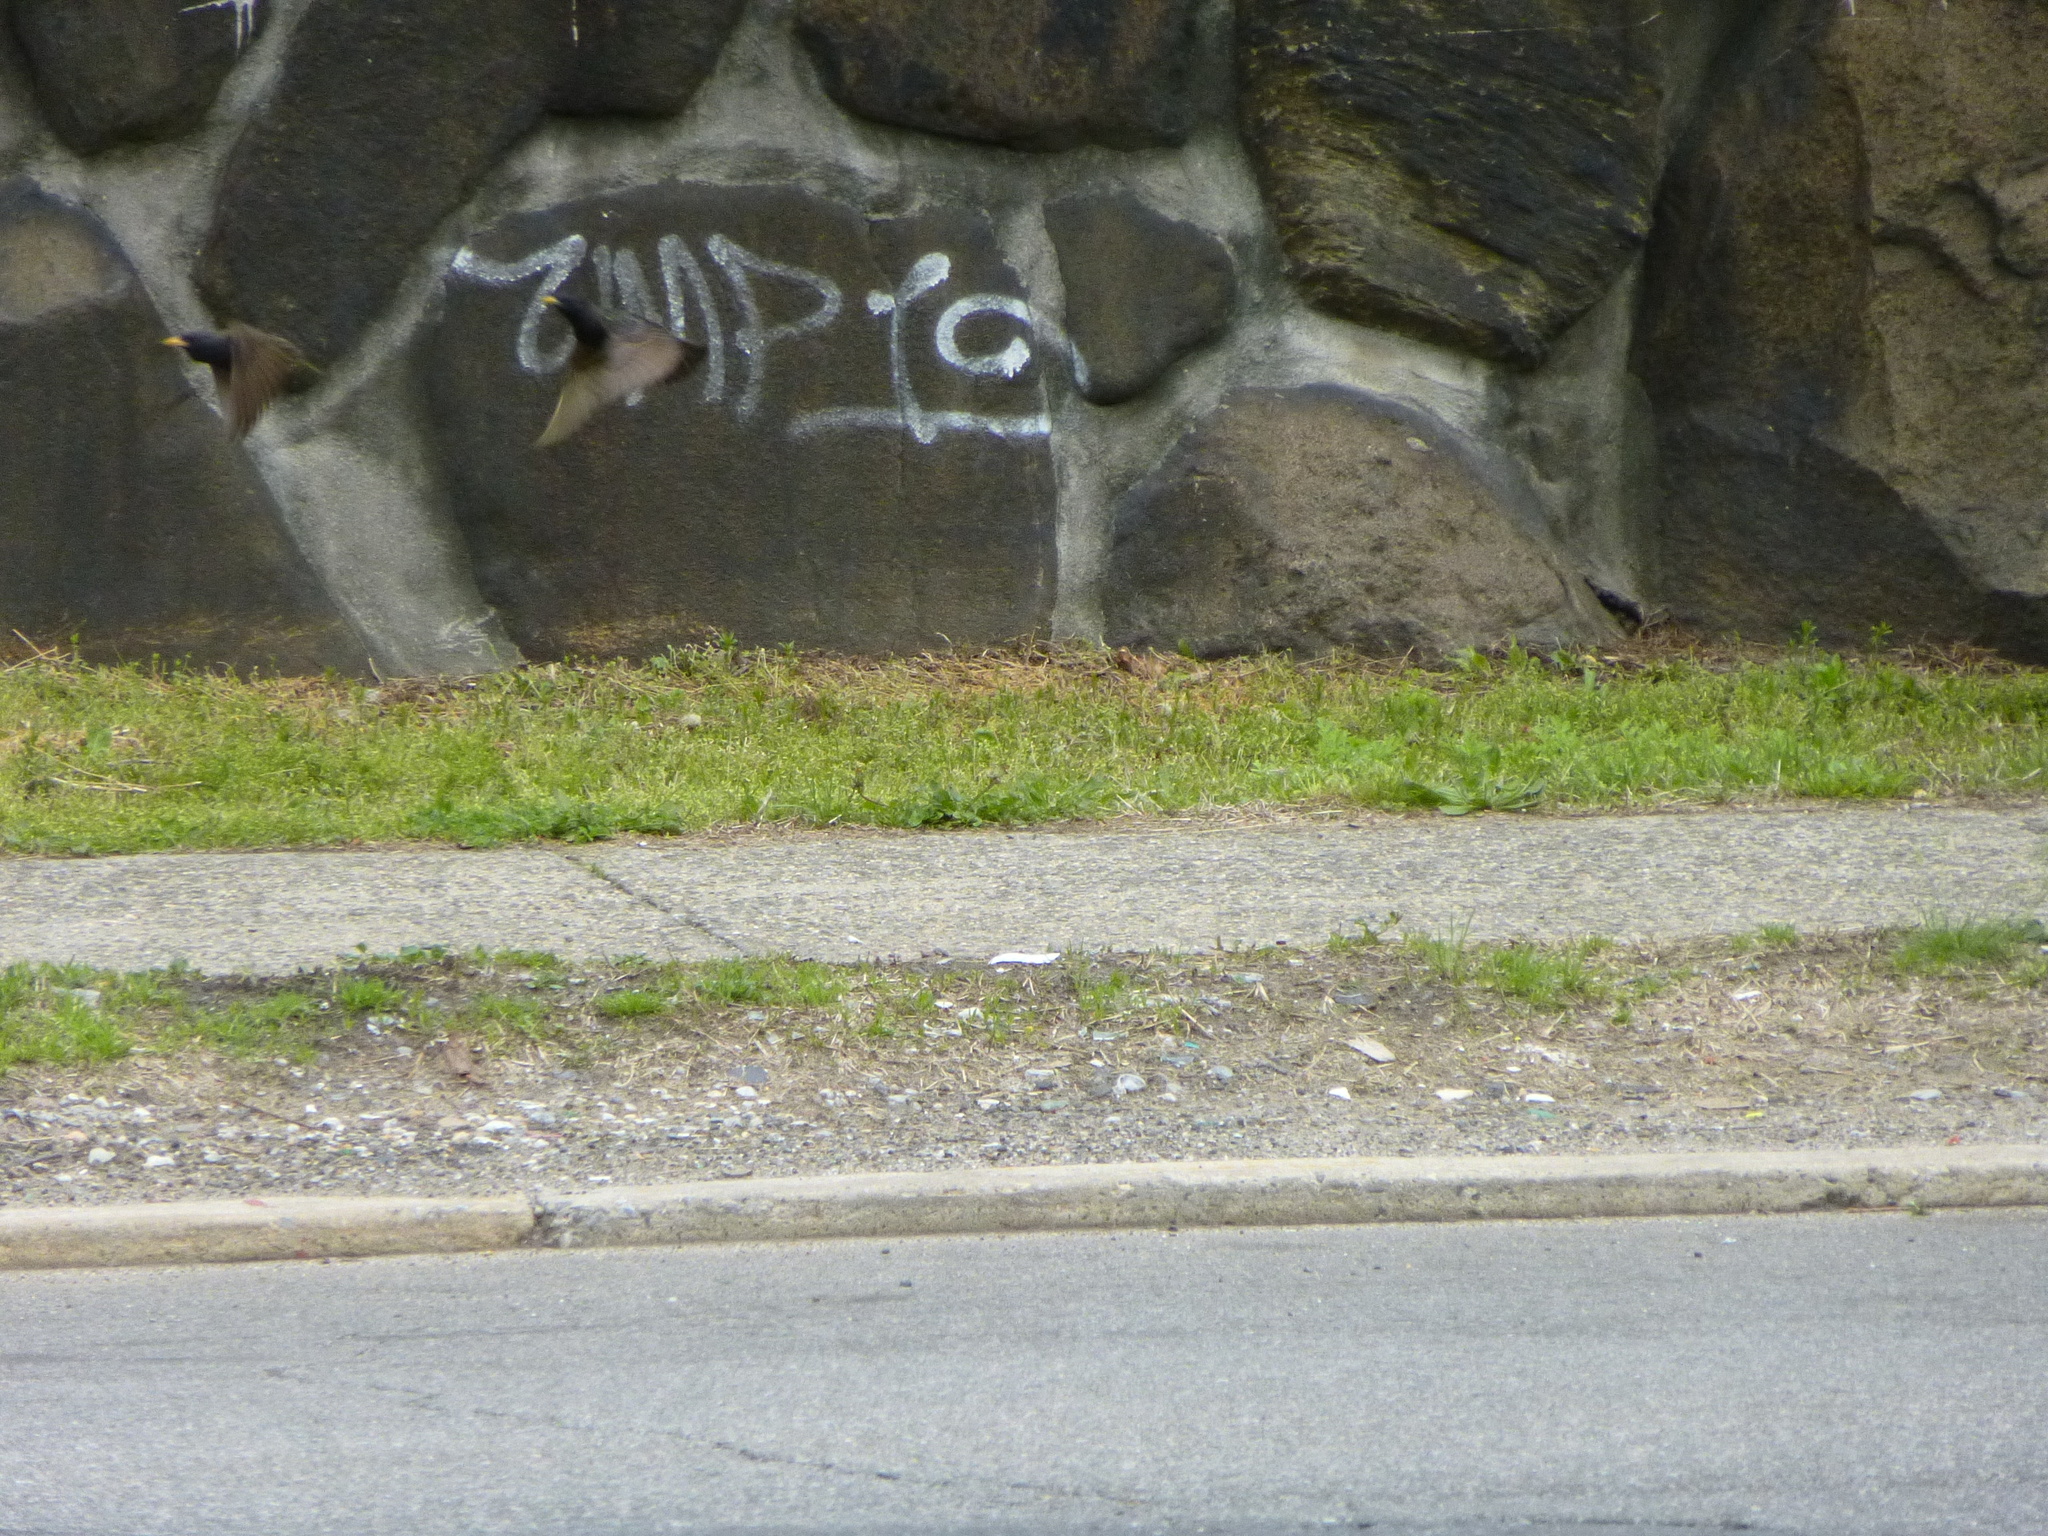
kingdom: Animalia
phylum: Chordata
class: Aves
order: Passeriformes
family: Sturnidae
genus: Sturnus
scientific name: Sturnus vulgaris
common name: Common starling
